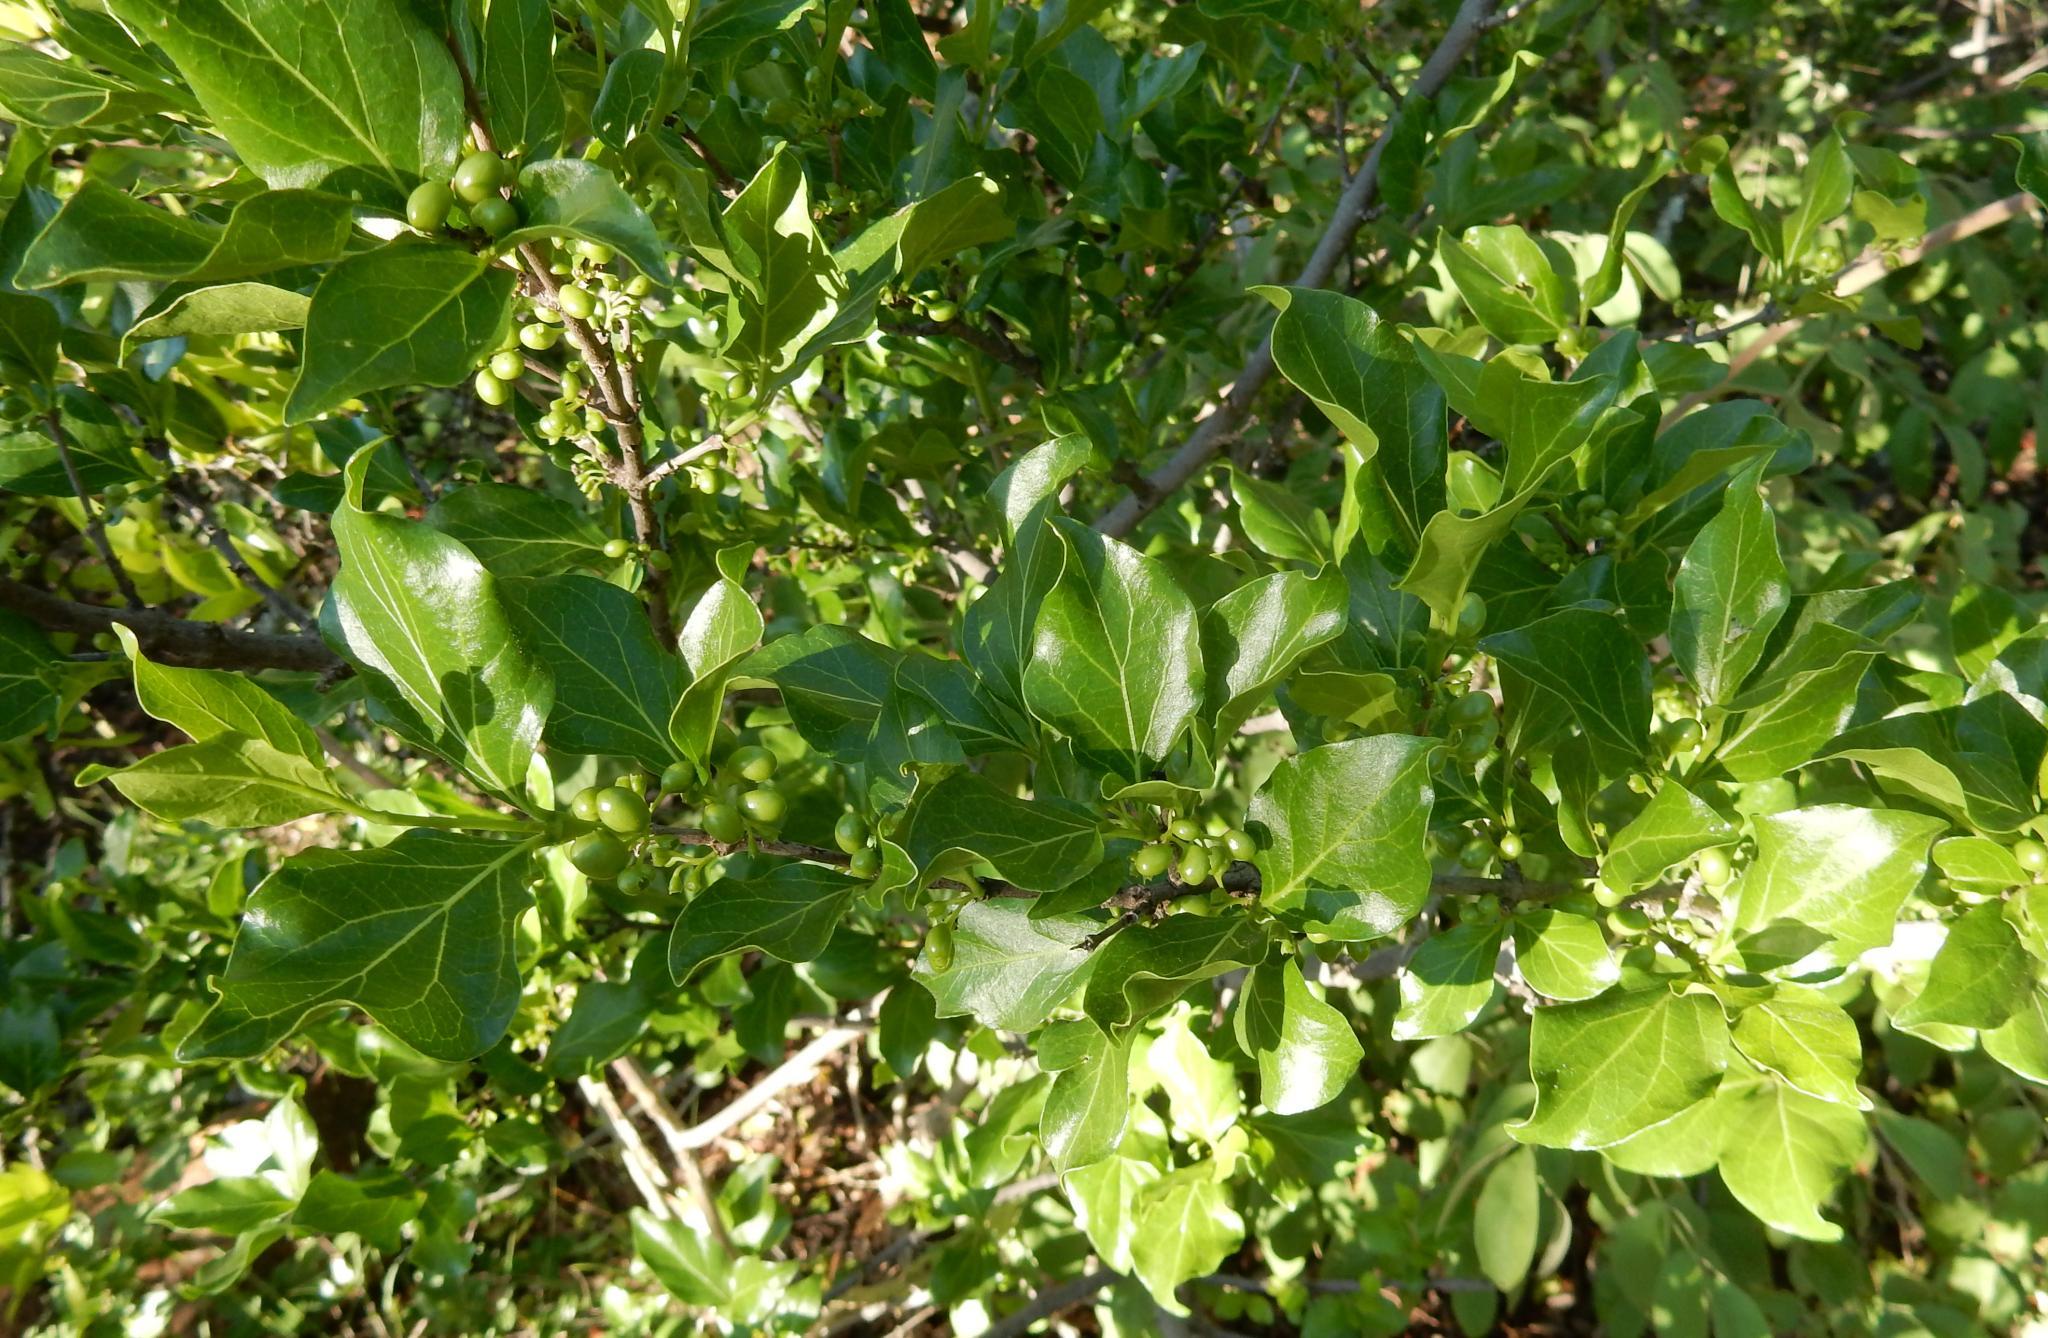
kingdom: Plantae
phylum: Tracheophyta
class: Magnoliopsida
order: Gentianales
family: Rubiaceae
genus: Afrocanthium
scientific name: Afrocanthium mundianum
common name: Rock-alder
